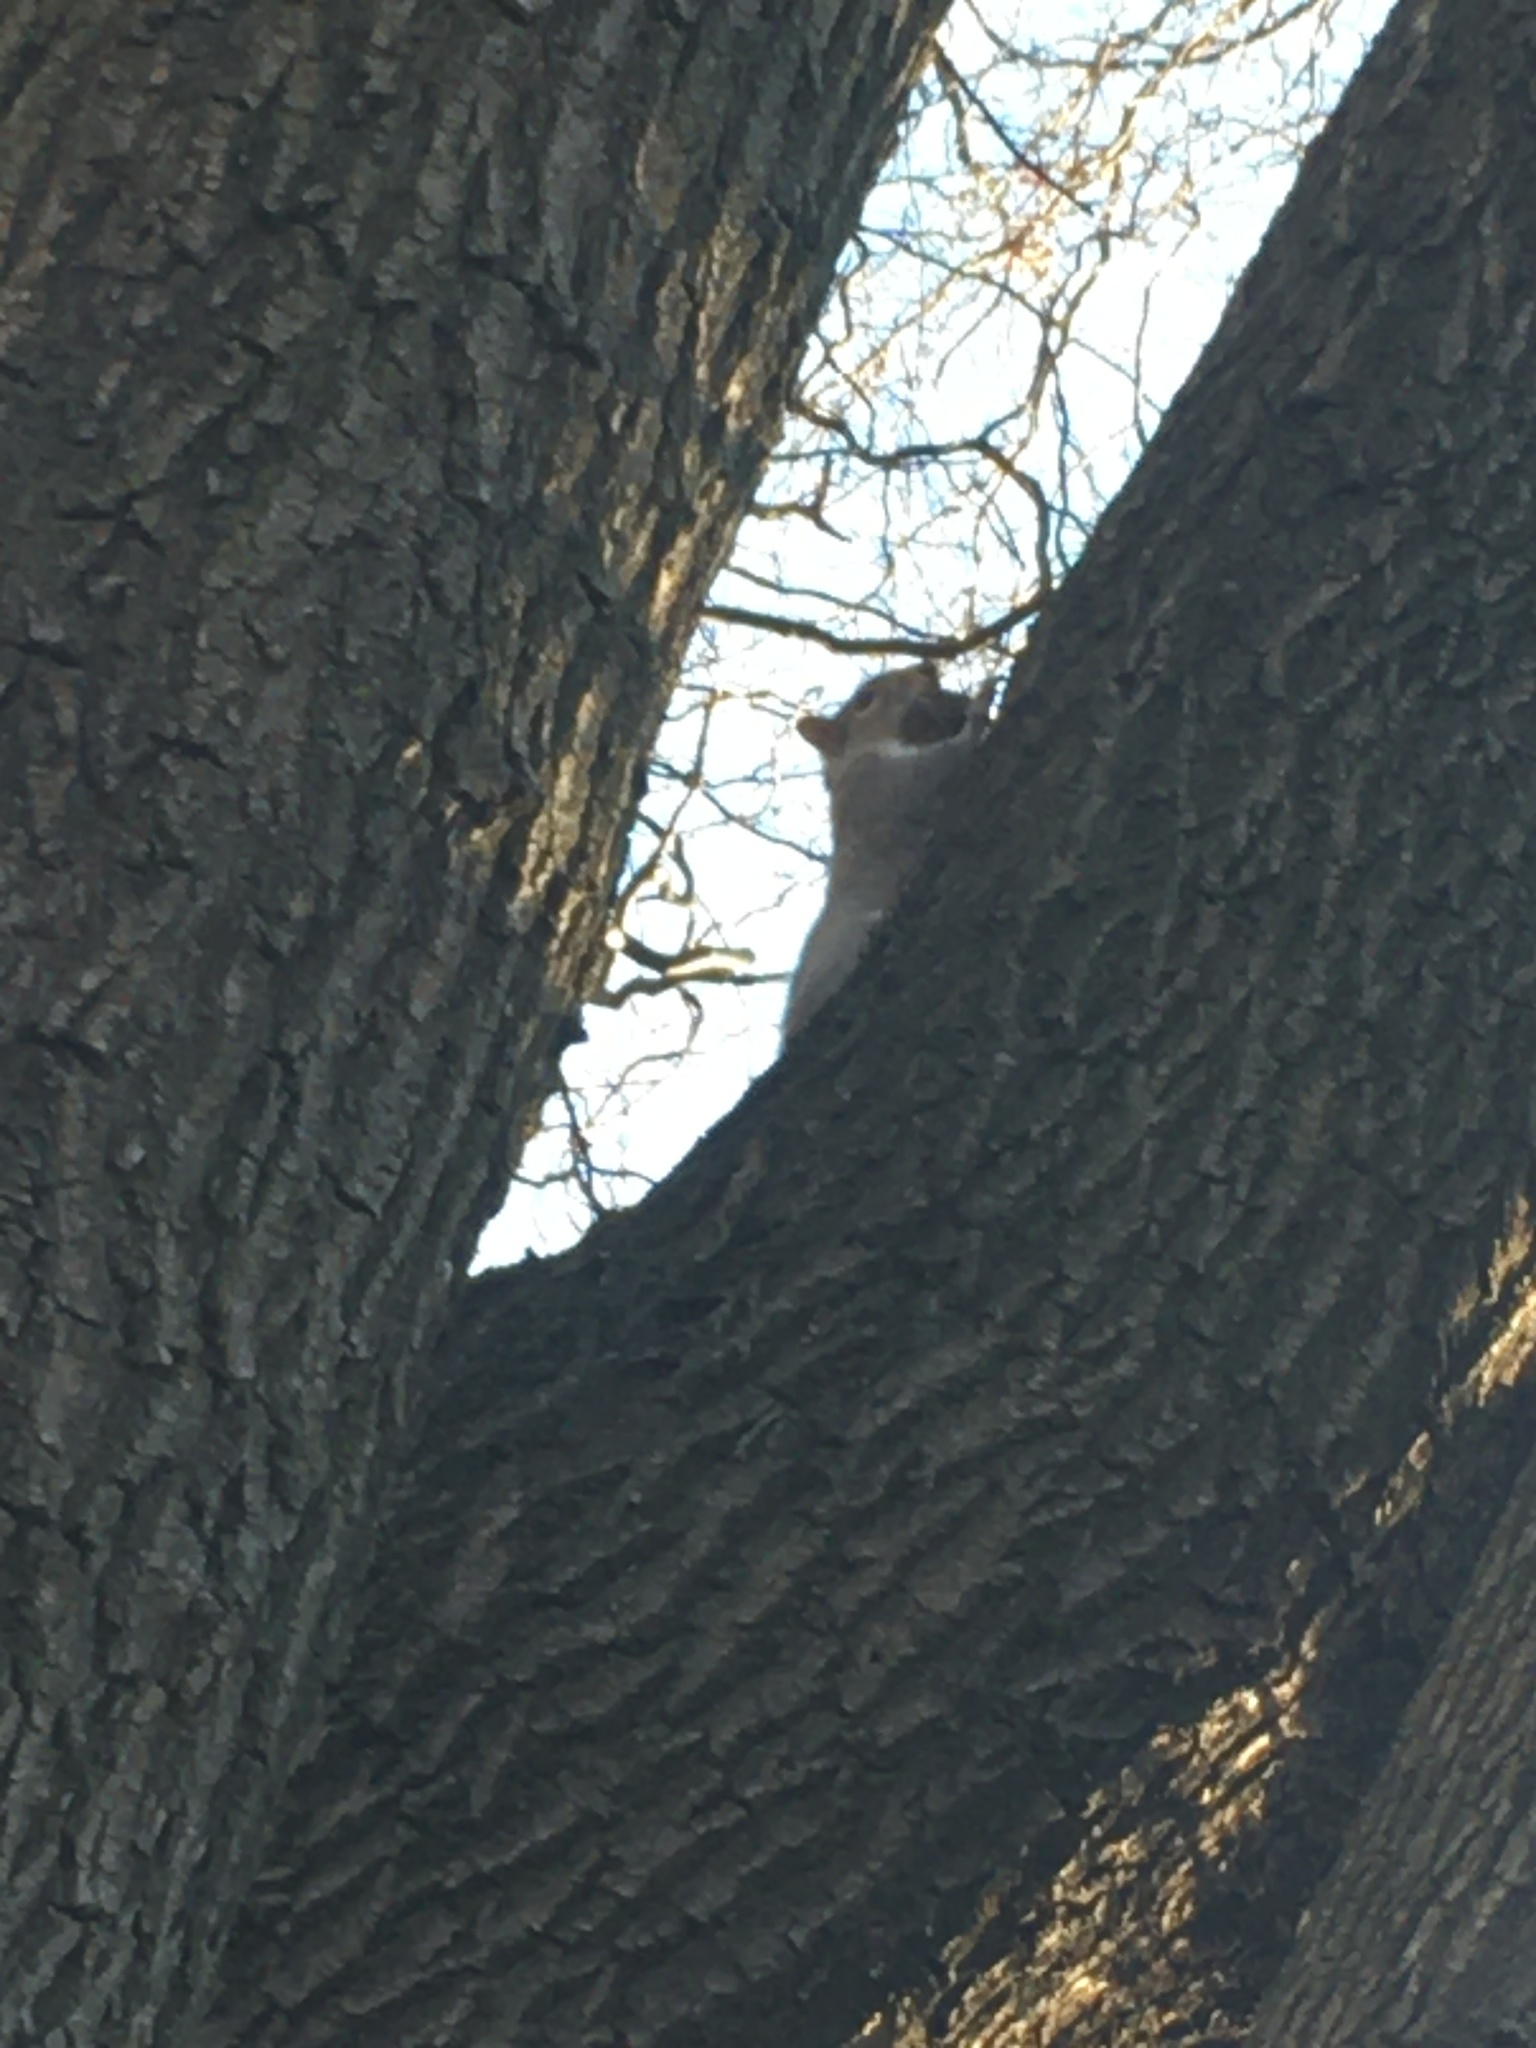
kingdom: Animalia
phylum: Chordata
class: Mammalia
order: Rodentia
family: Sciuridae
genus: Sciurus
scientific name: Sciurus carolinensis
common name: Eastern gray squirrel
